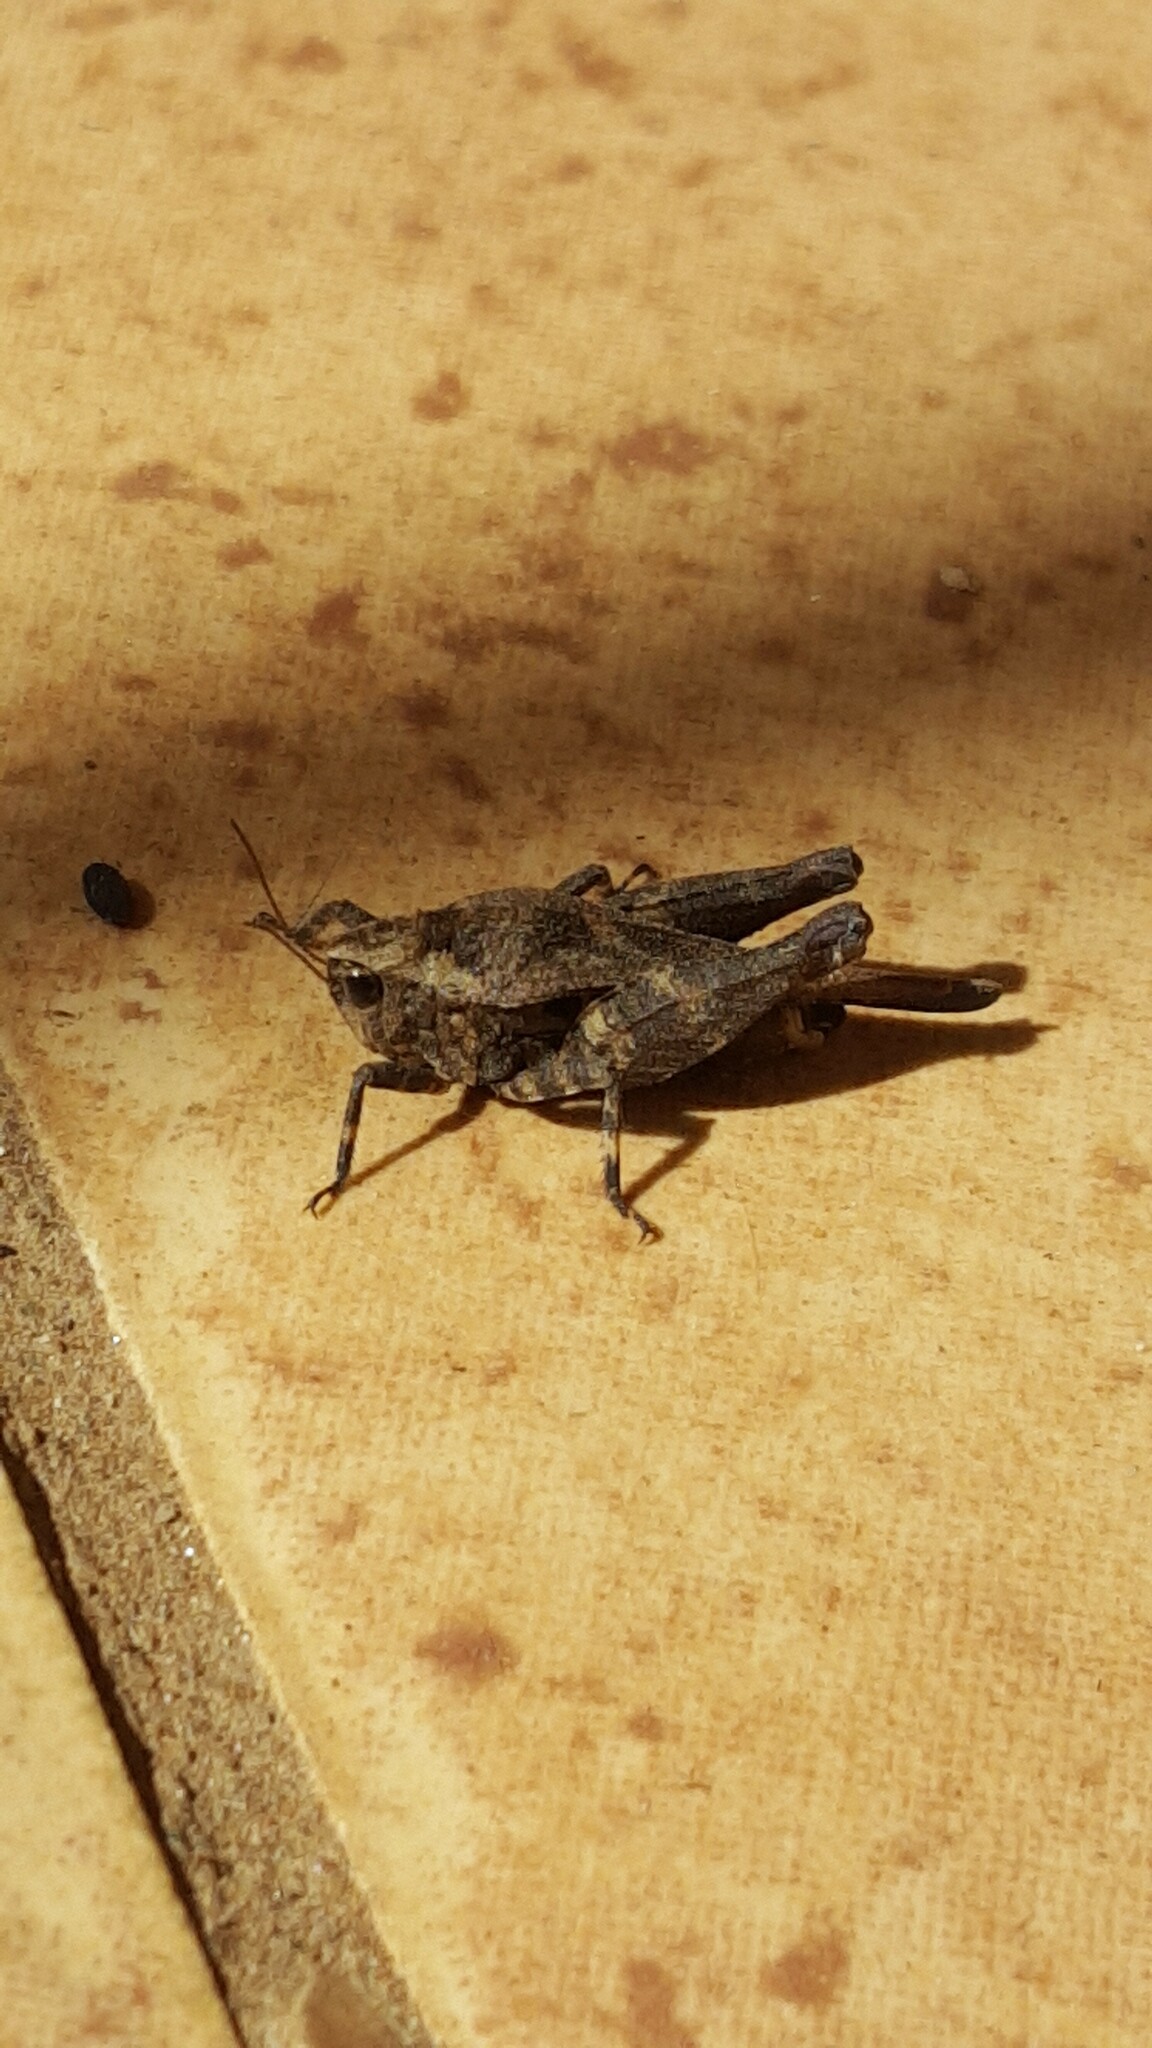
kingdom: Animalia
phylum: Arthropoda
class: Insecta
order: Orthoptera
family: Tetrigidae
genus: Phloeonotus
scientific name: Phloeonotus humilis
